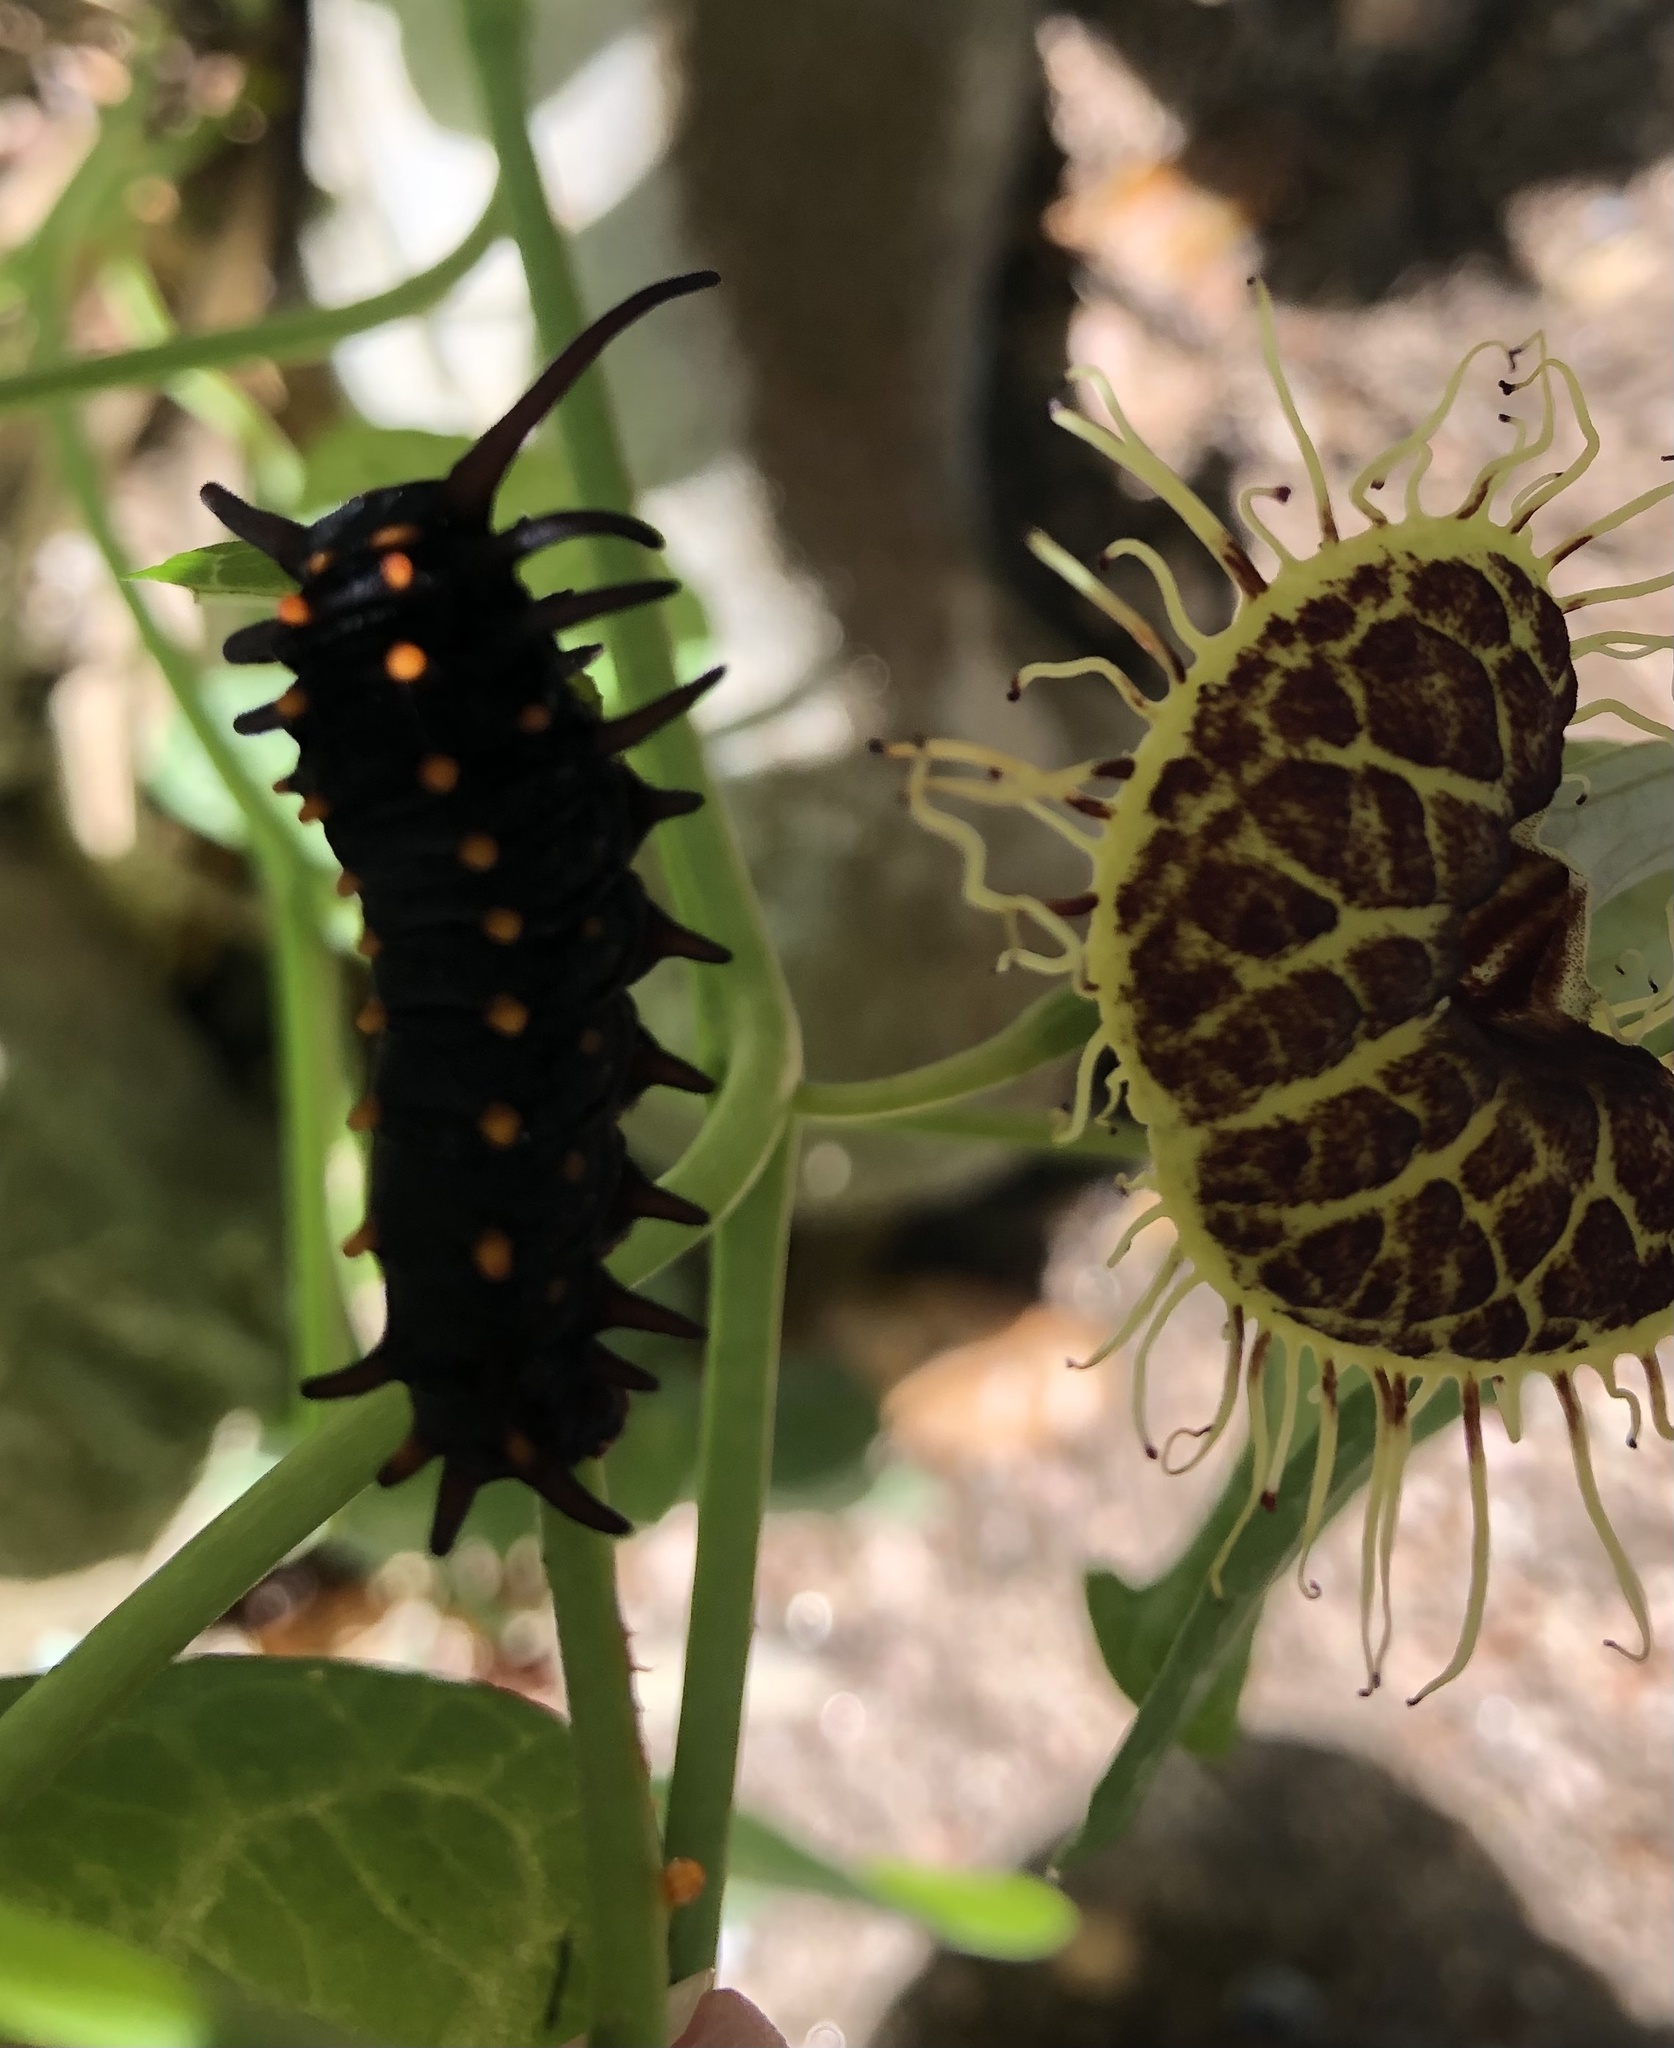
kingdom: Animalia
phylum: Arthropoda
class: Insecta
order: Lepidoptera
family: Papilionidae
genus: Battus
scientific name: Battus philenor
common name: Pipevine swallowtail
